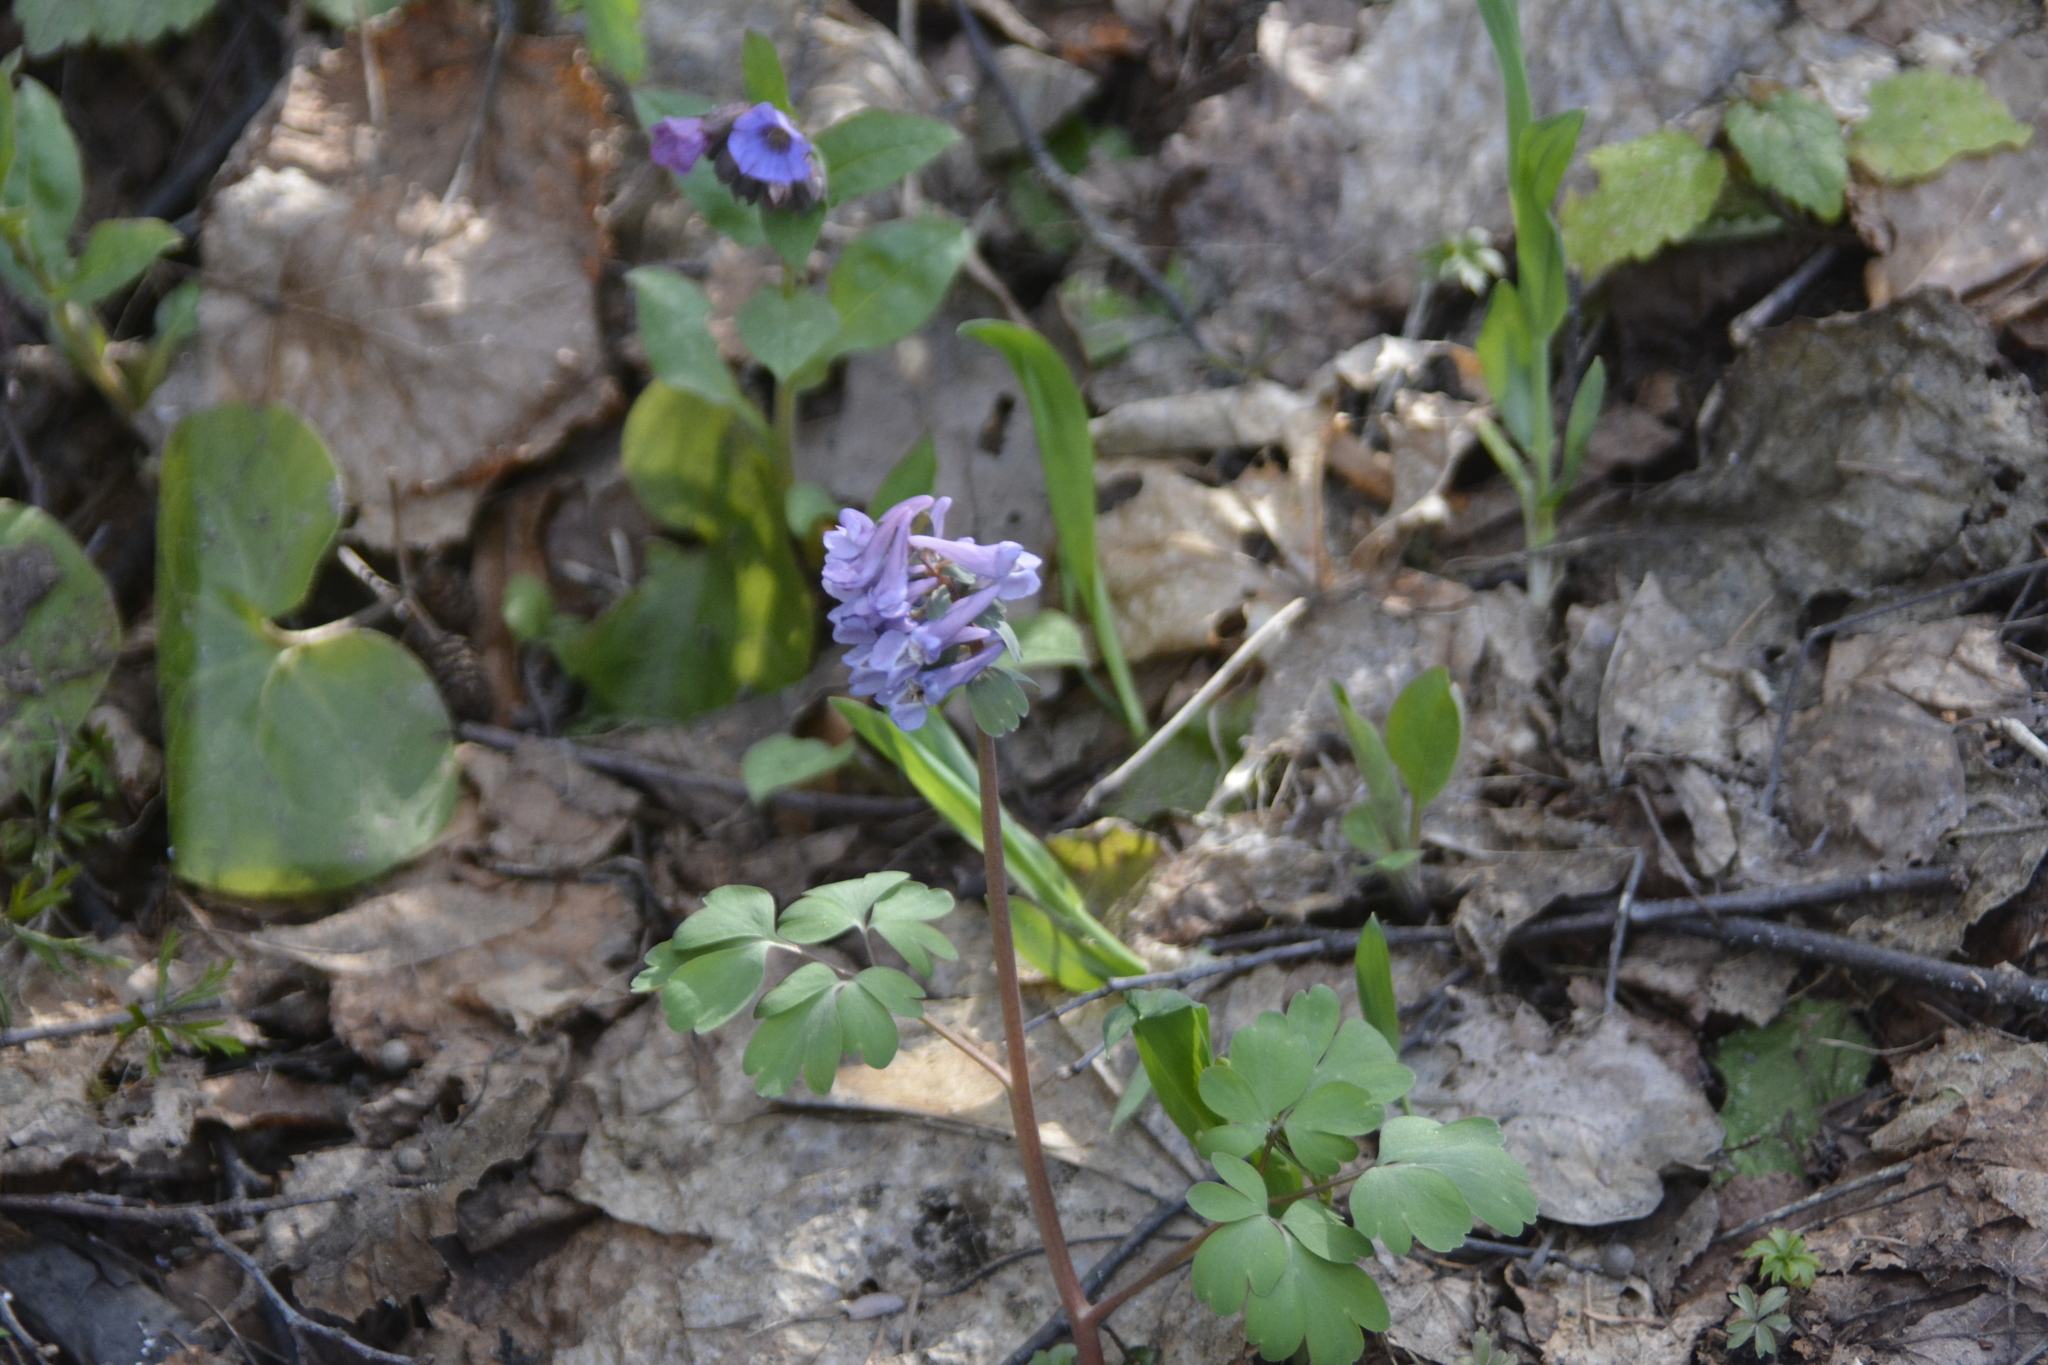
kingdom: Plantae
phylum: Tracheophyta
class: Magnoliopsida
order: Ranunculales
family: Papaveraceae
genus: Corydalis
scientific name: Corydalis solida
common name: Bird-in-a-bush
